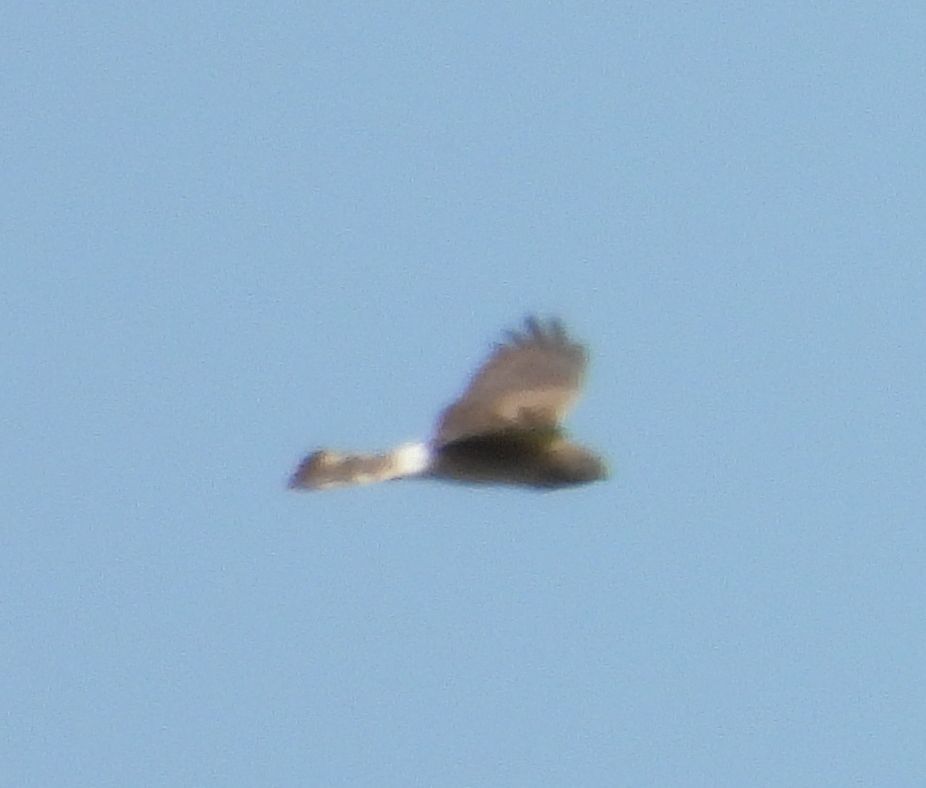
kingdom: Animalia
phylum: Chordata
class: Aves
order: Accipitriformes
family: Accipitridae
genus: Circus
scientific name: Circus cyaneus
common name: Hen harrier
